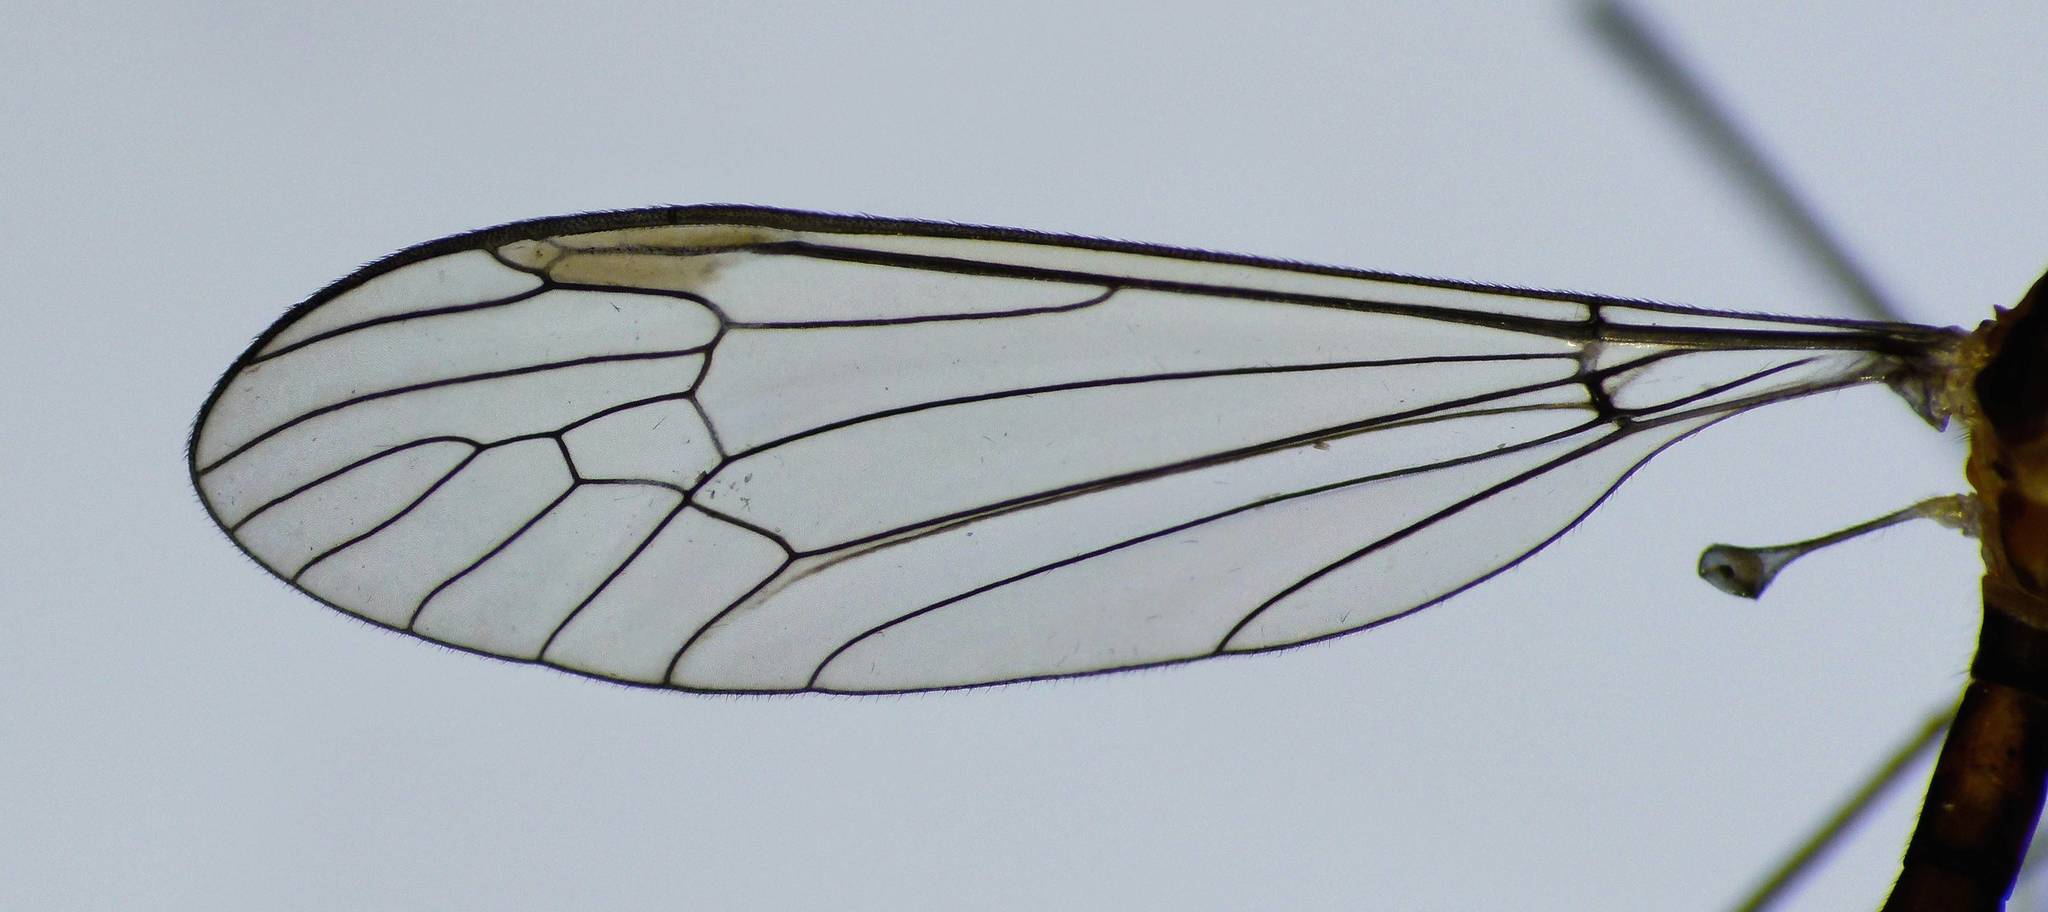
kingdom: Animalia
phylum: Arthropoda
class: Insecta
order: Diptera
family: Tipulidae
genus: Leptotarsus
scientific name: Leptotarsus subtener
